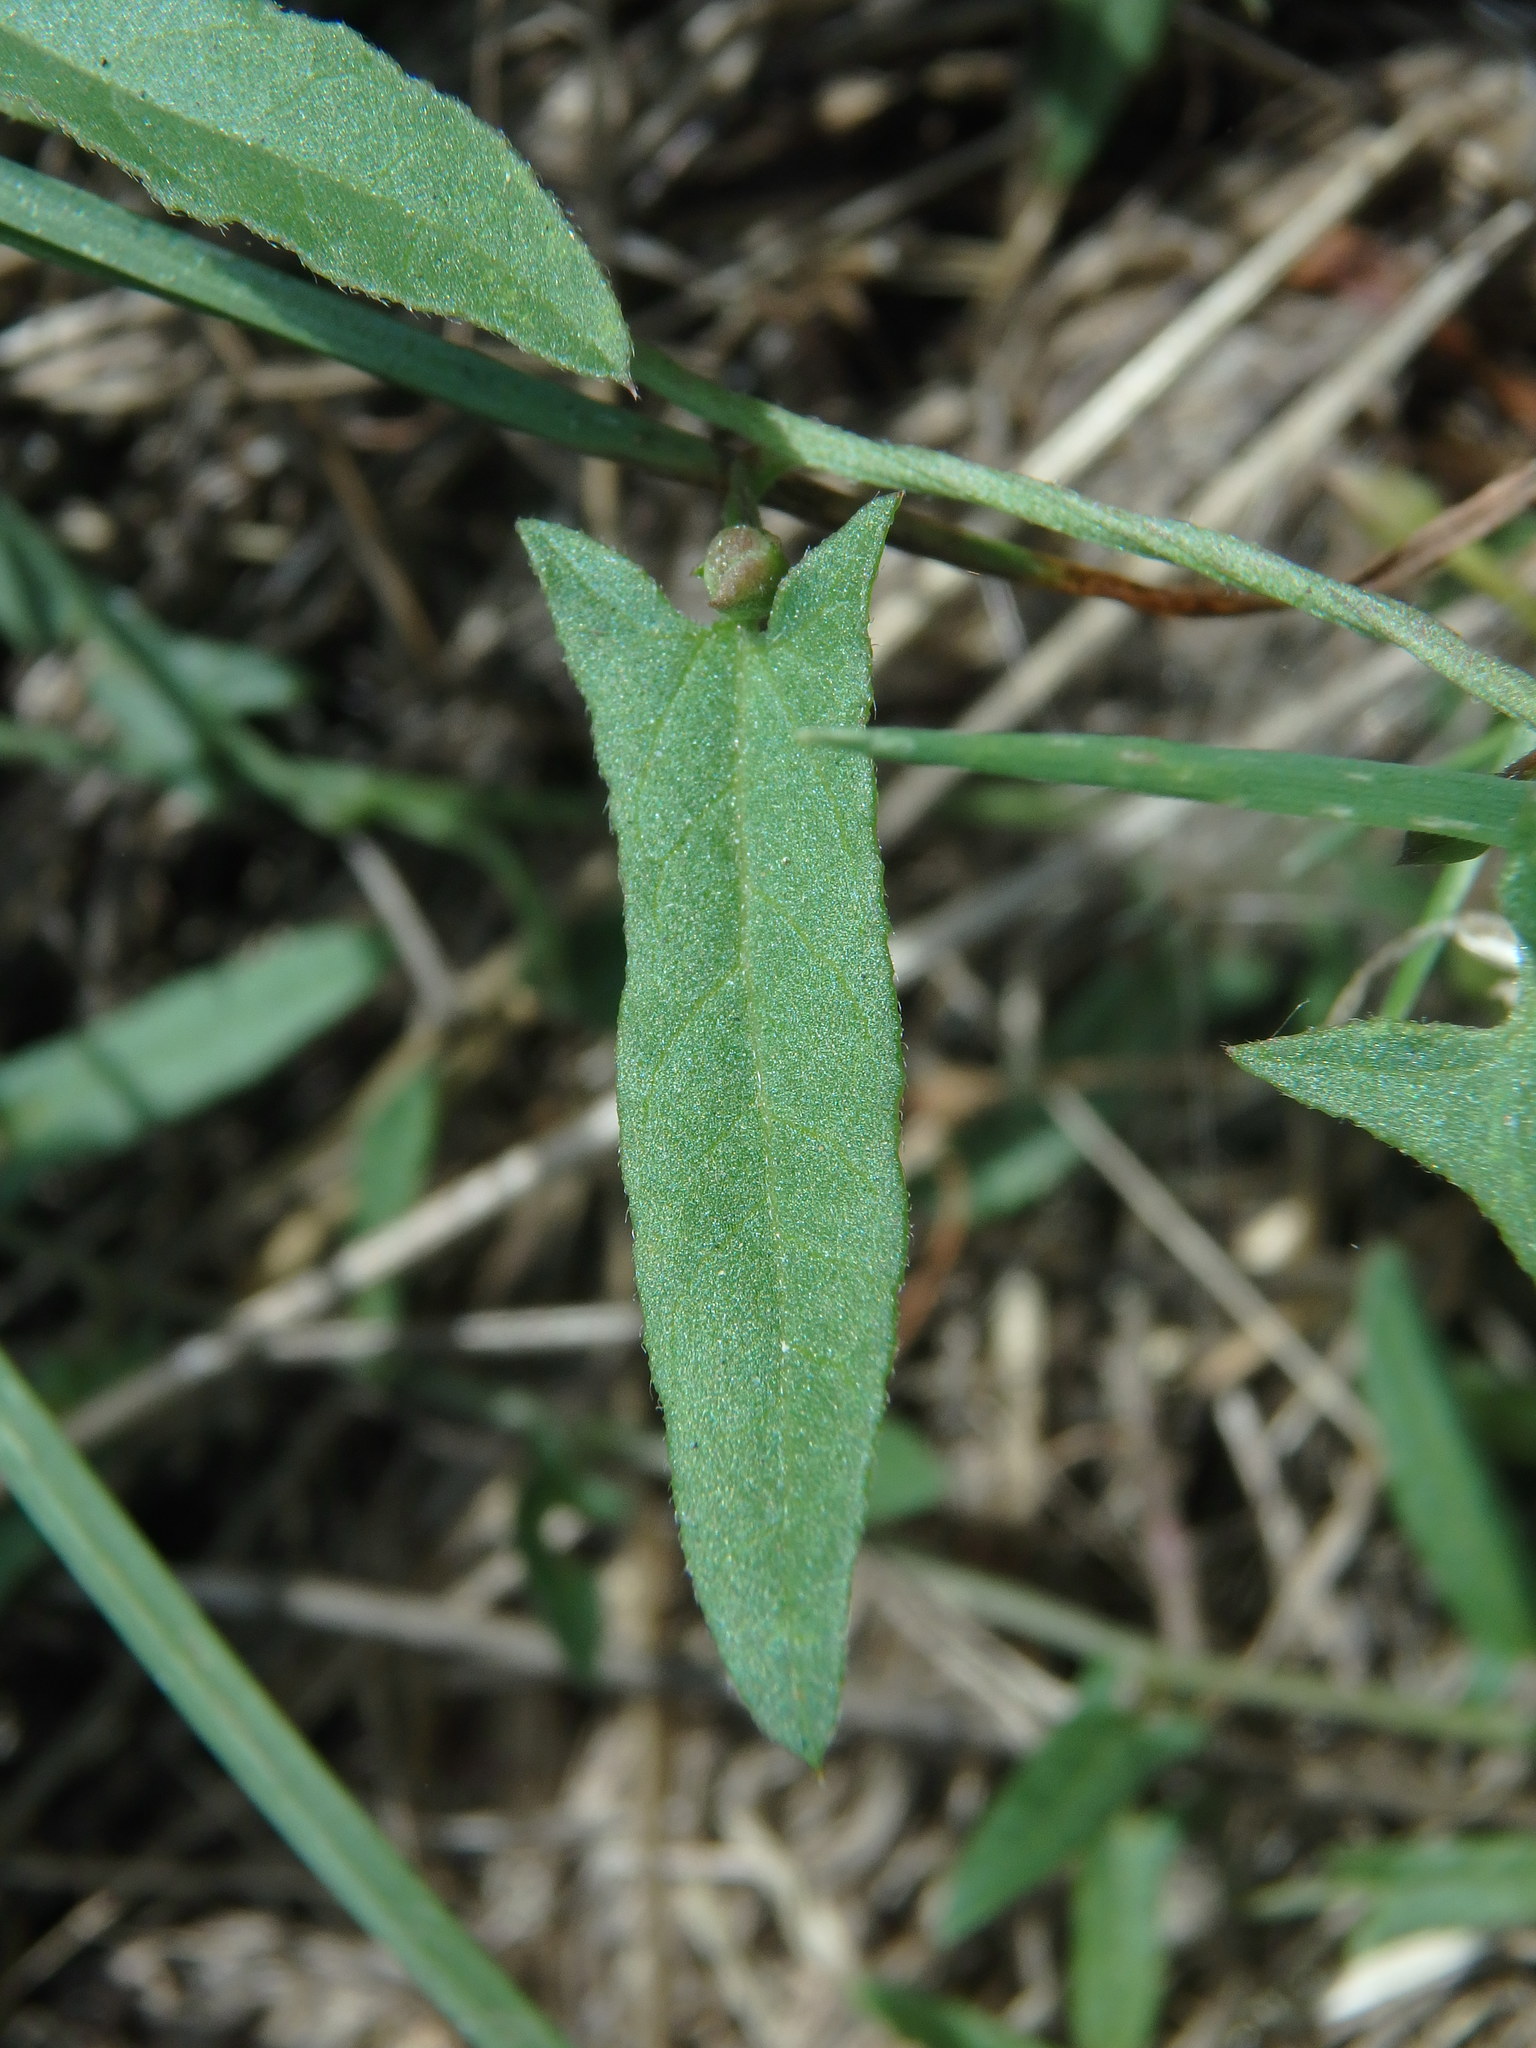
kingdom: Plantae
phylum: Tracheophyta
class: Magnoliopsida
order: Solanales
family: Convolvulaceae
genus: Convolvulus
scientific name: Convolvulus arvensis
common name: Field bindweed
